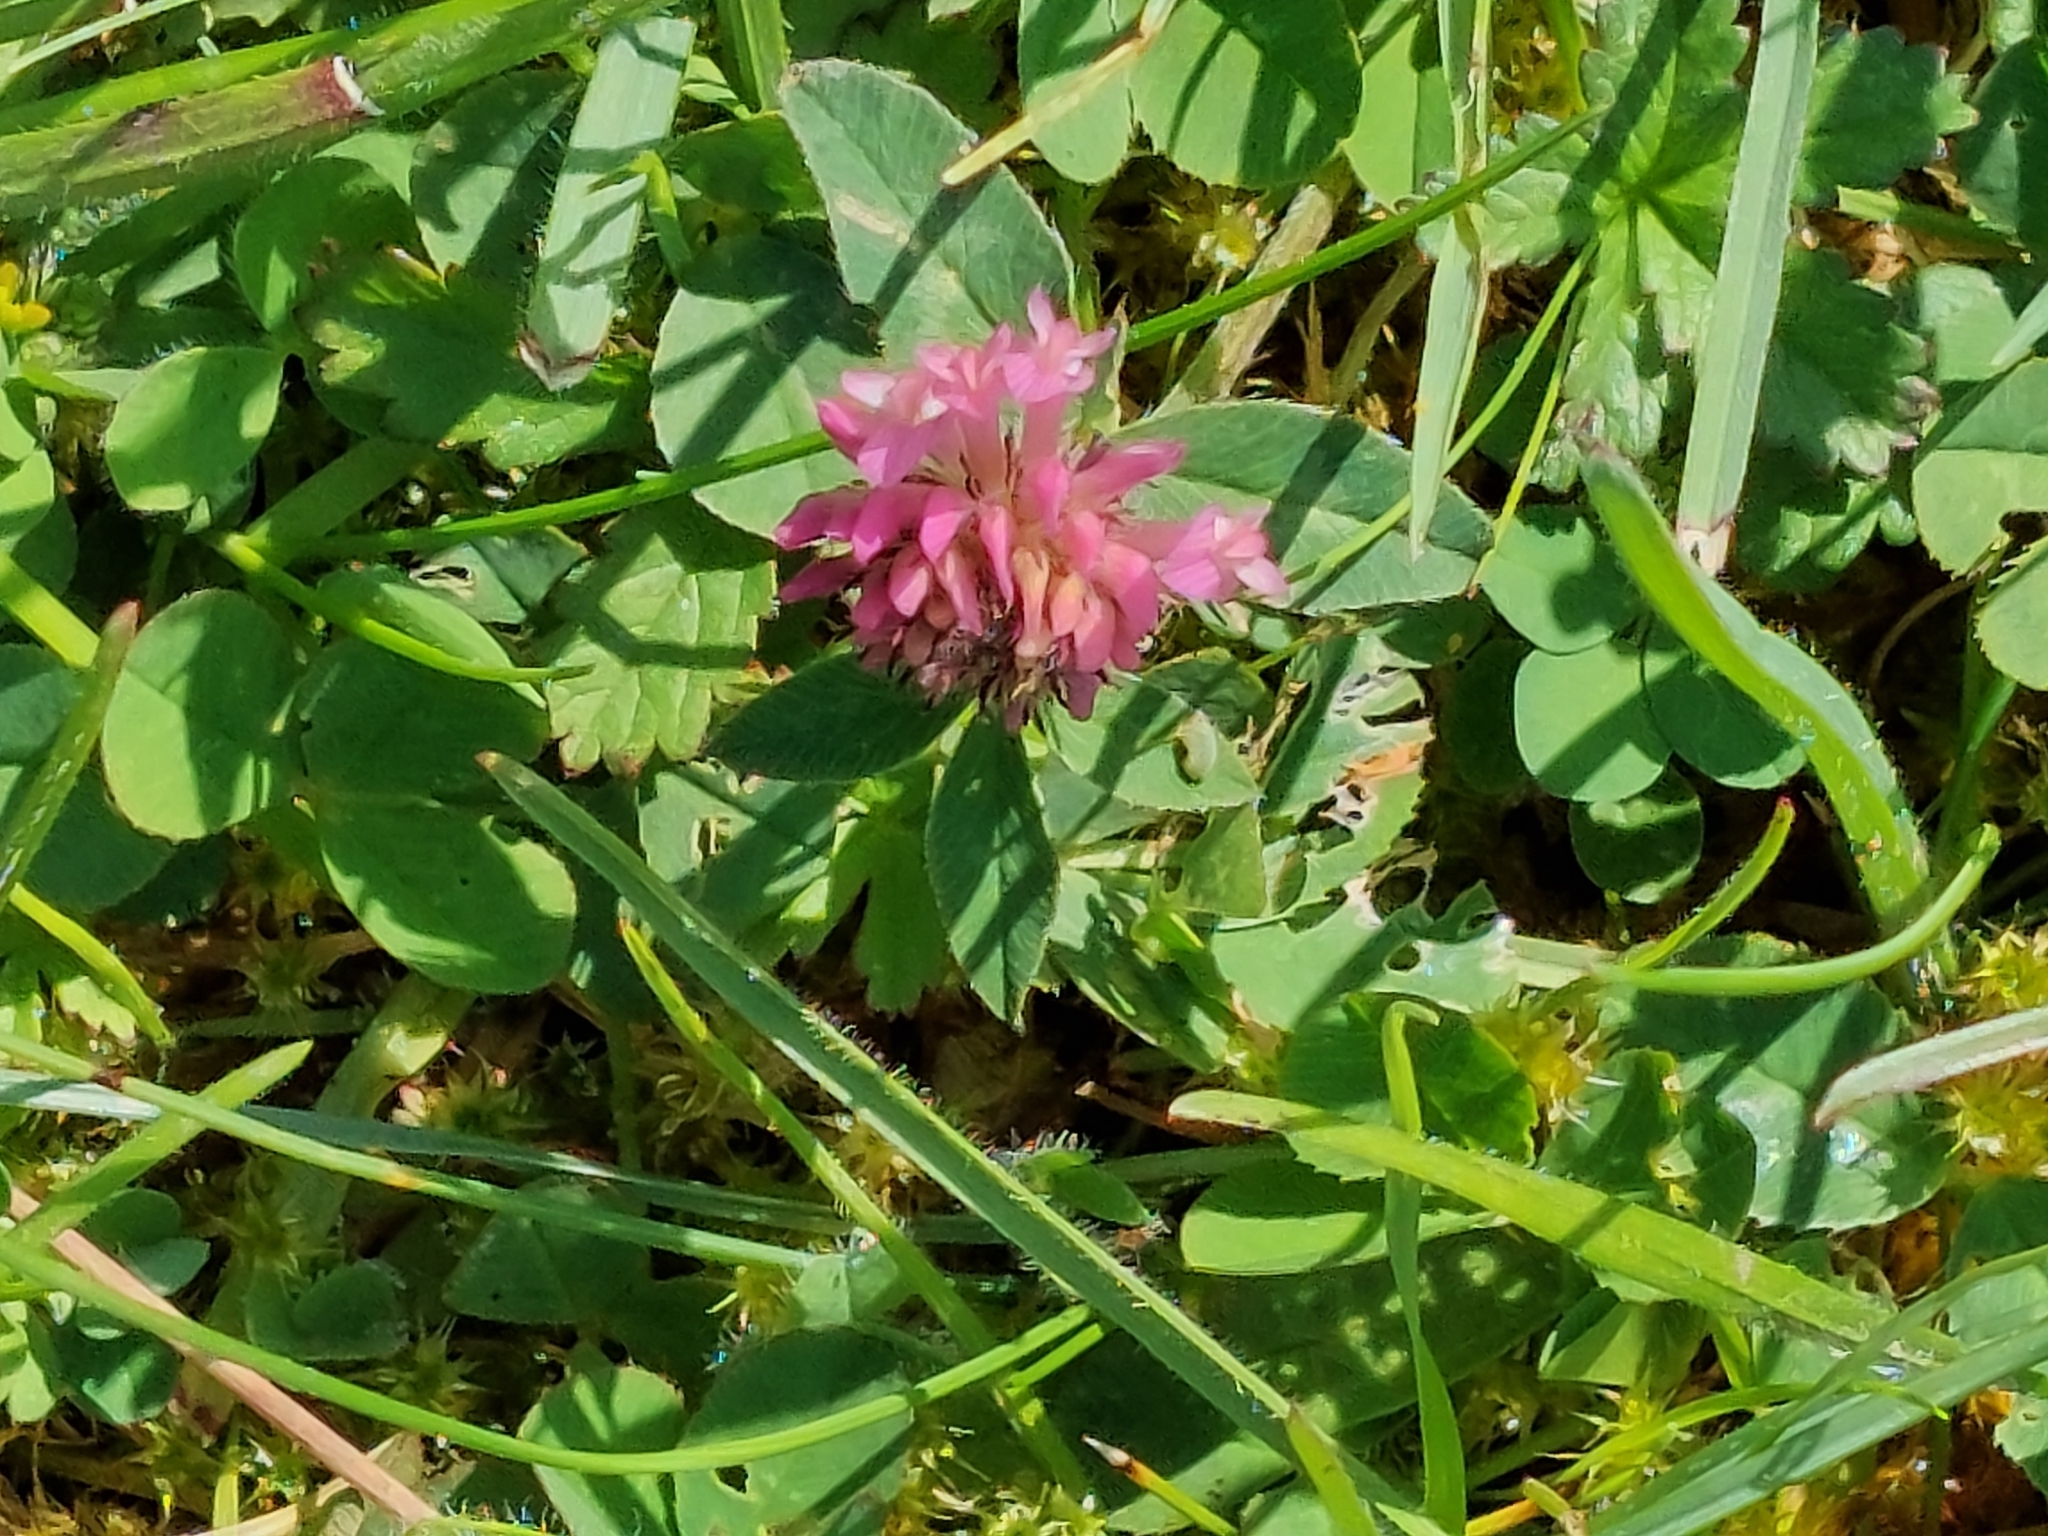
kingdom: Plantae
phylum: Tracheophyta
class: Magnoliopsida
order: Fabales
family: Fabaceae
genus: Trifolium
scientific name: Trifolium pratense
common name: Red clover
